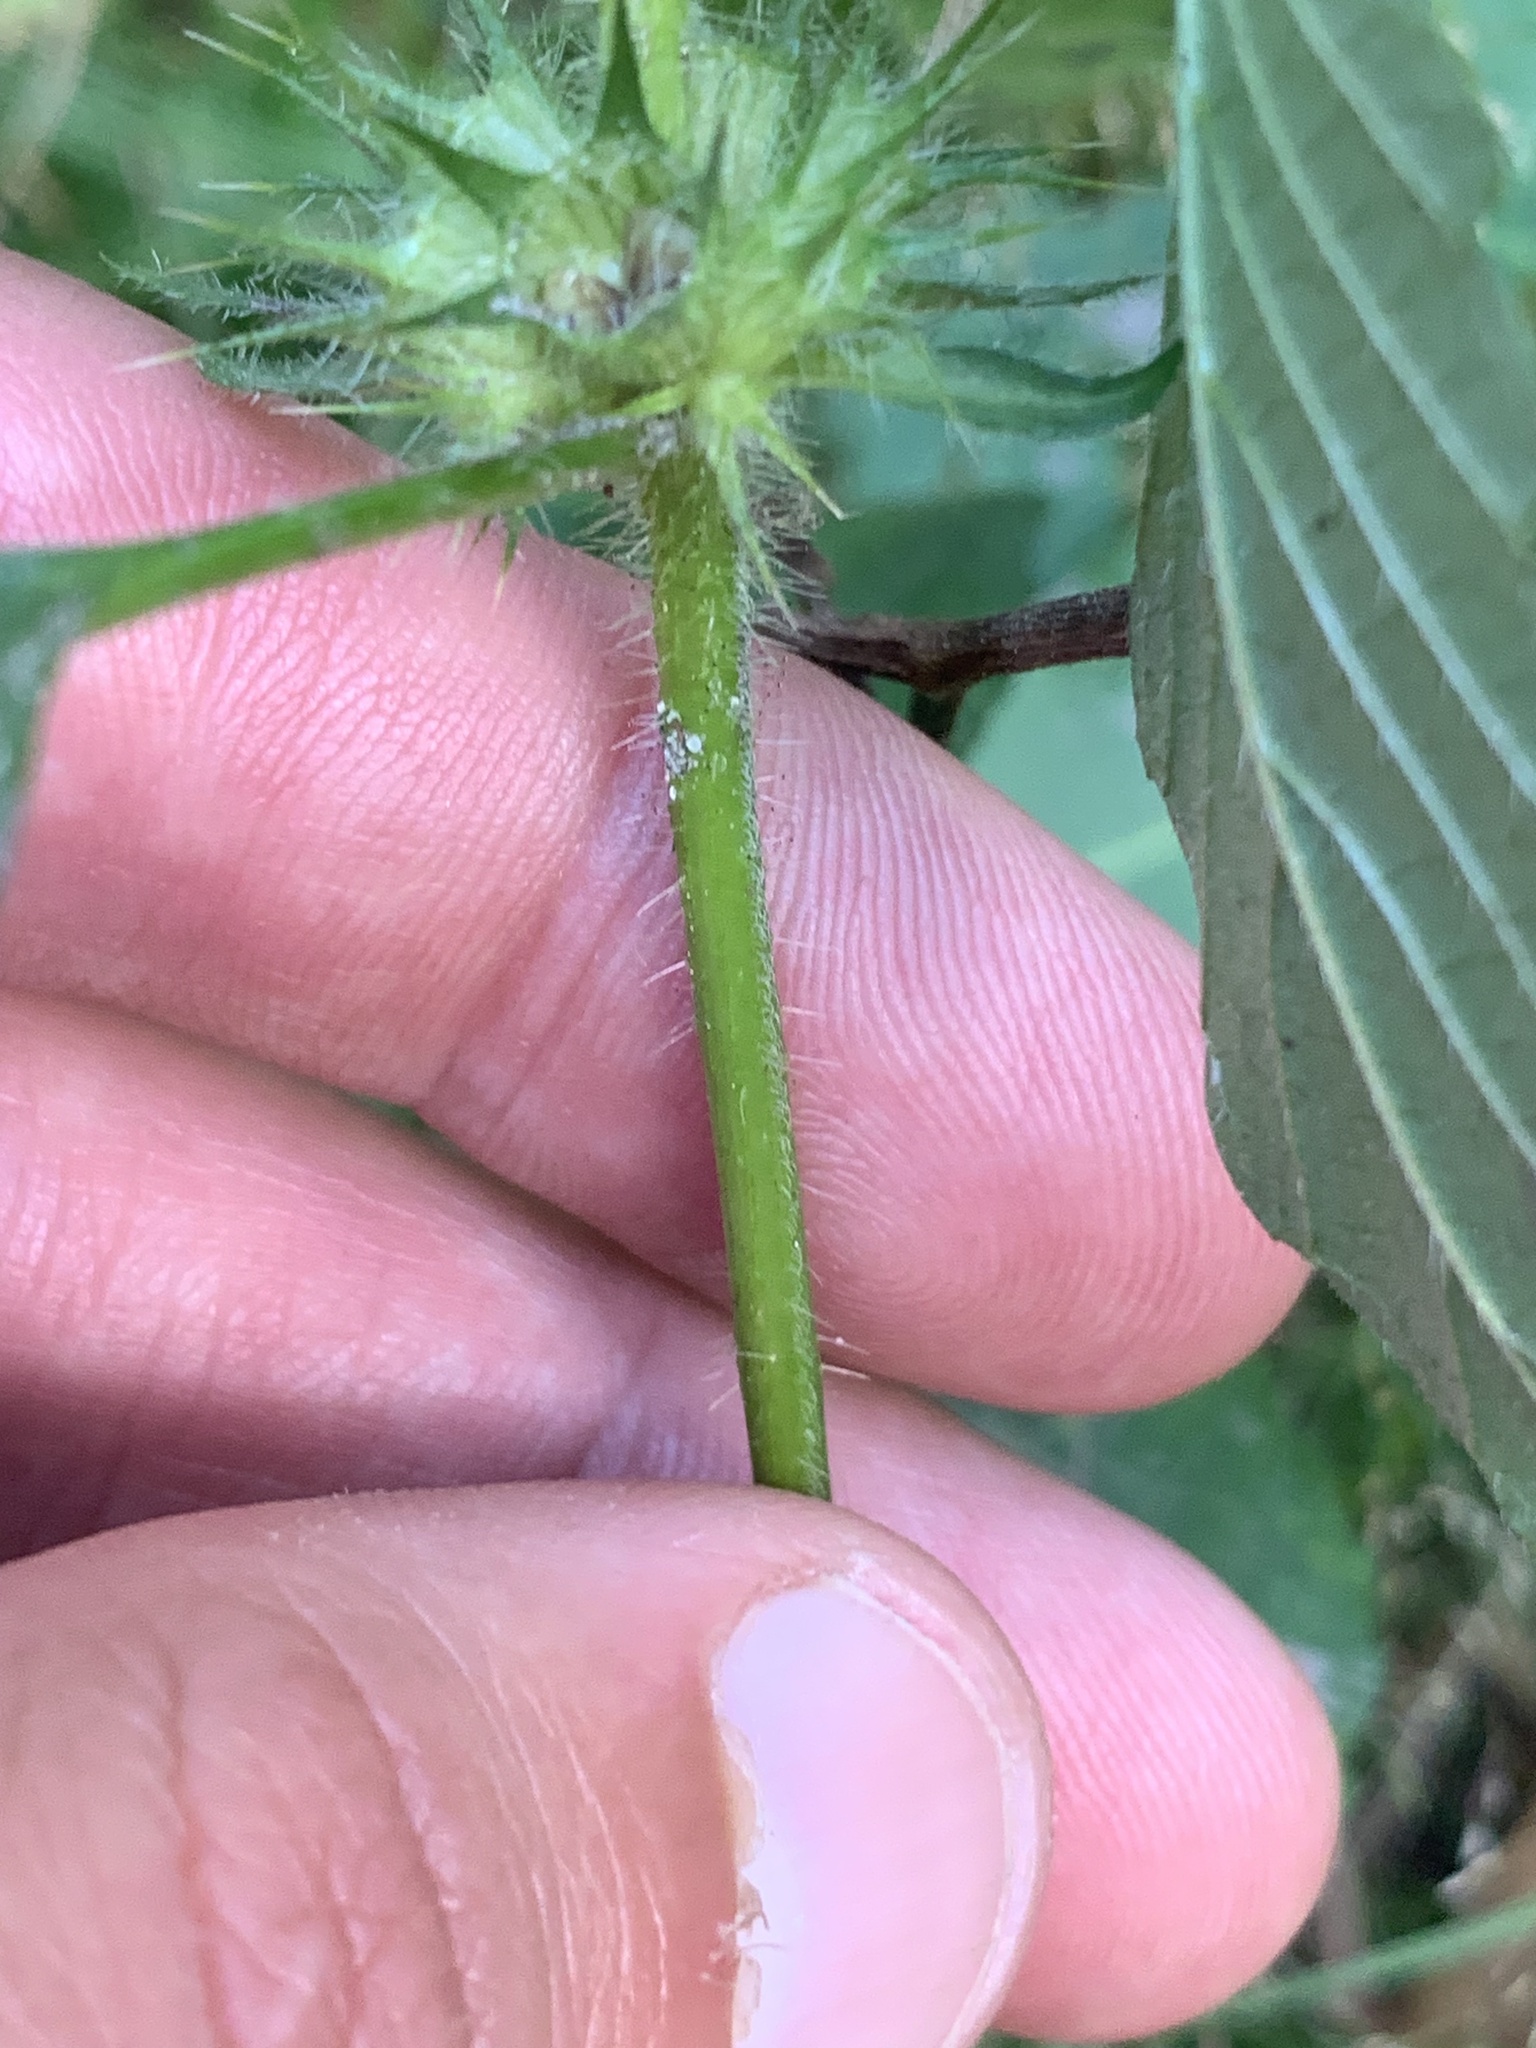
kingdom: Plantae
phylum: Tracheophyta
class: Magnoliopsida
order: Lamiales
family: Lamiaceae
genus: Galeopsis
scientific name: Galeopsis tetrahit
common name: Common hemp-nettle
